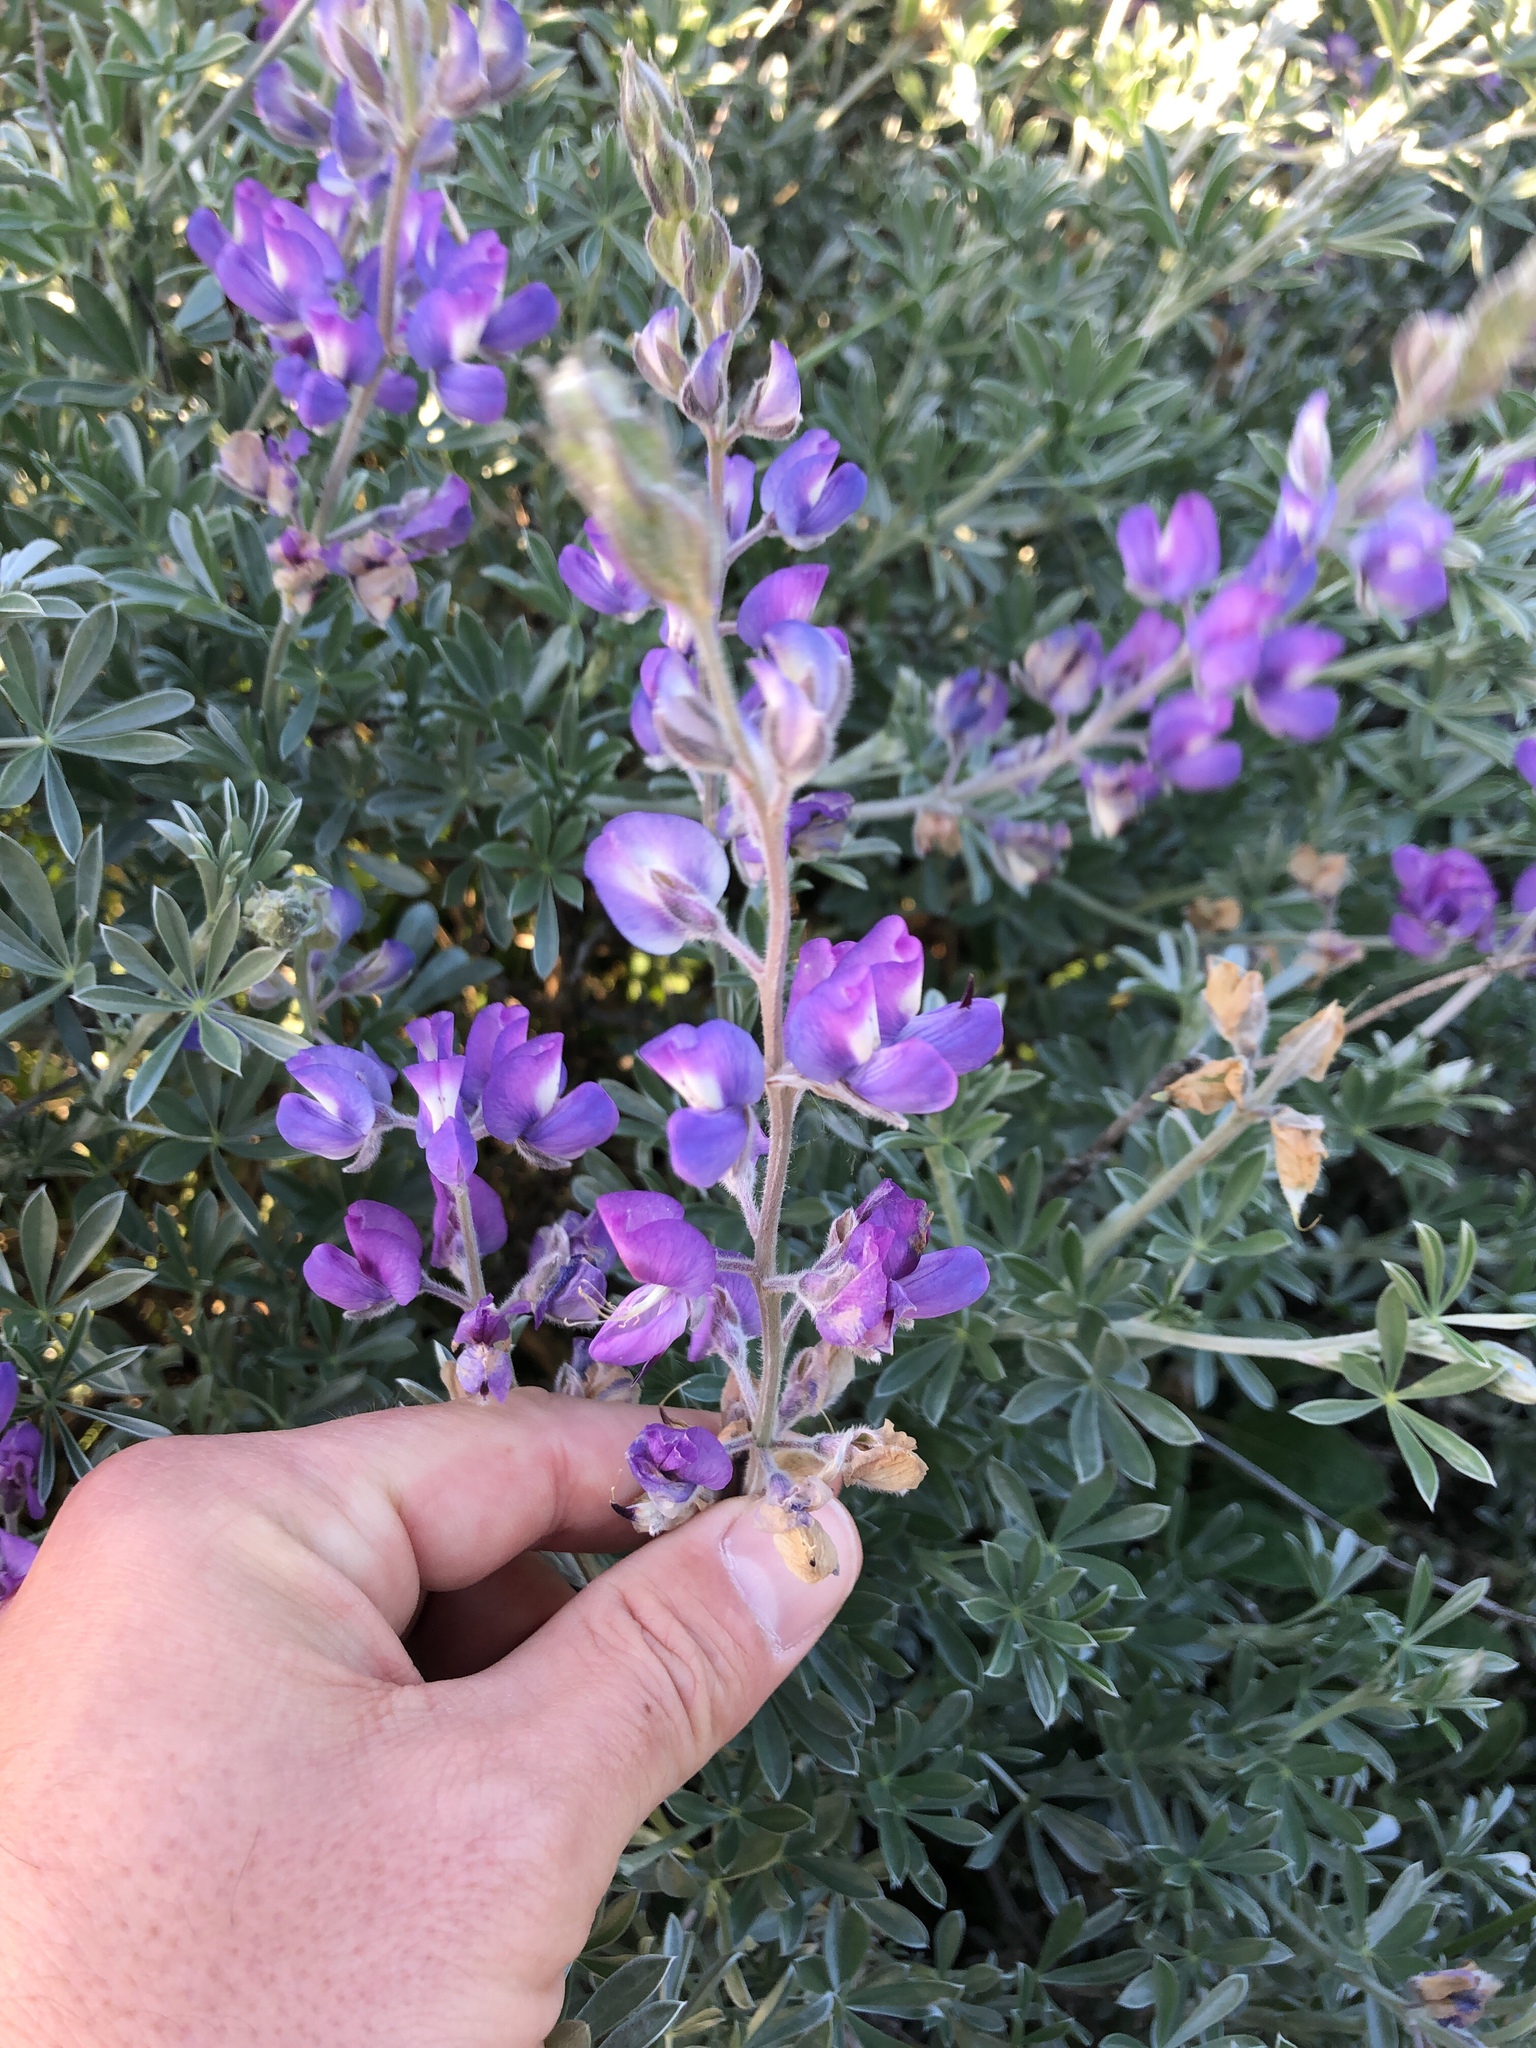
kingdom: Plantae
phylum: Tracheophyta
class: Magnoliopsida
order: Fabales
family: Fabaceae
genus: Lupinus
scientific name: Lupinus chamissonis
